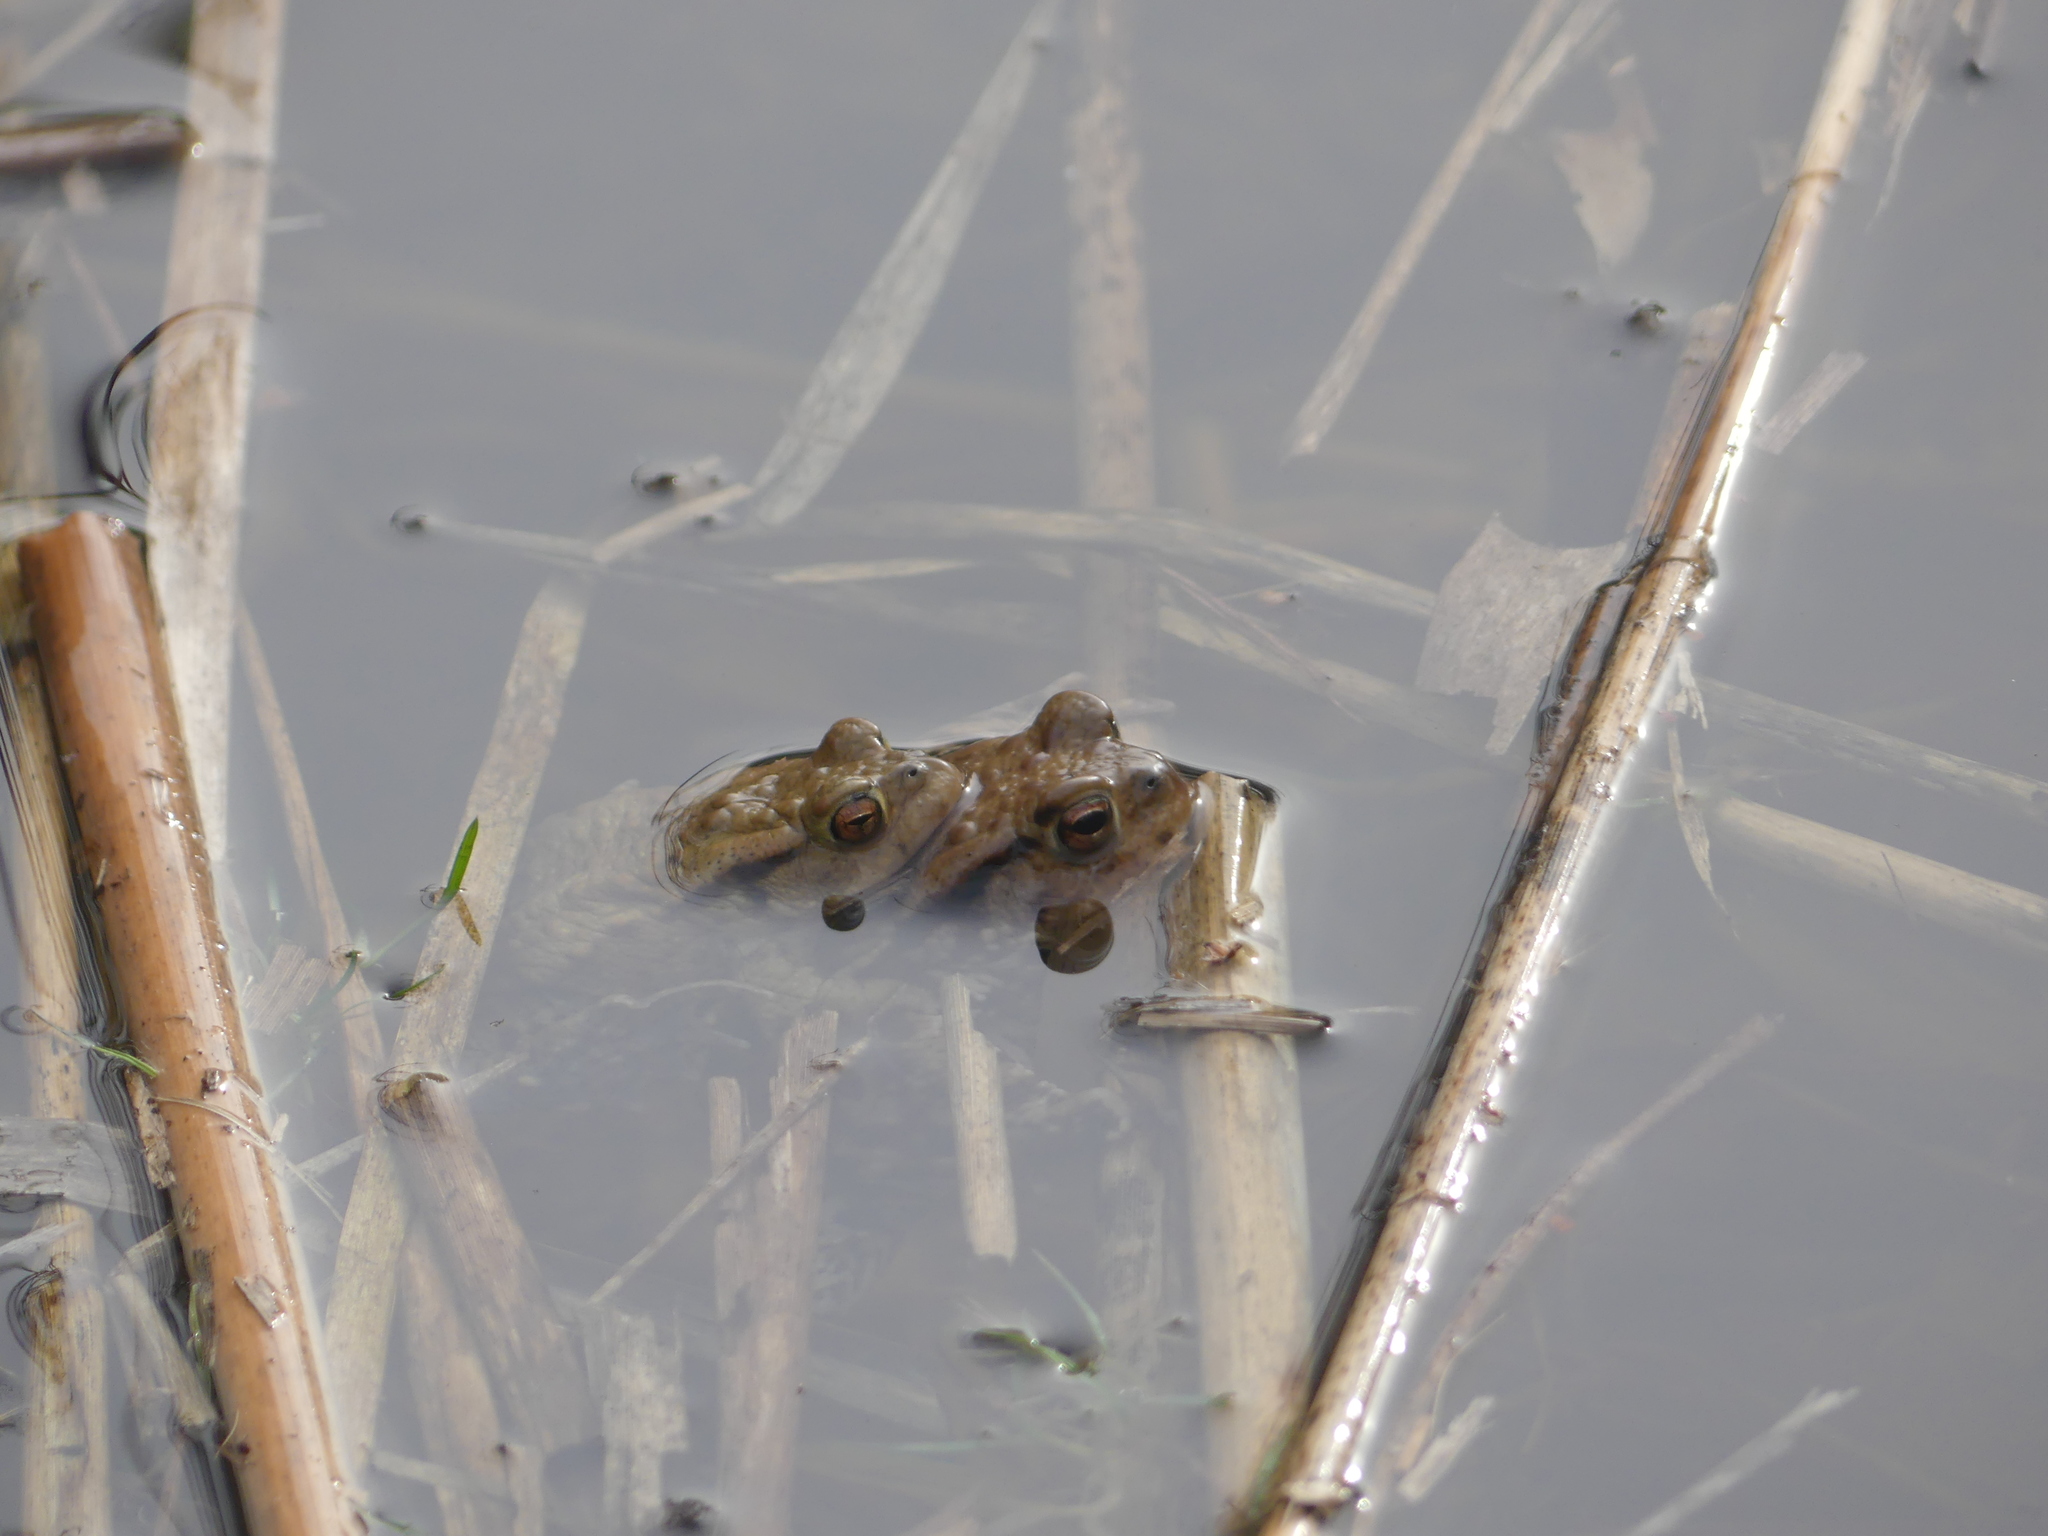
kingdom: Animalia
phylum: Chordata
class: Amphibia
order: Anura
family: Bufonidae
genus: Bufo
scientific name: Bufo bufo
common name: Common toad
